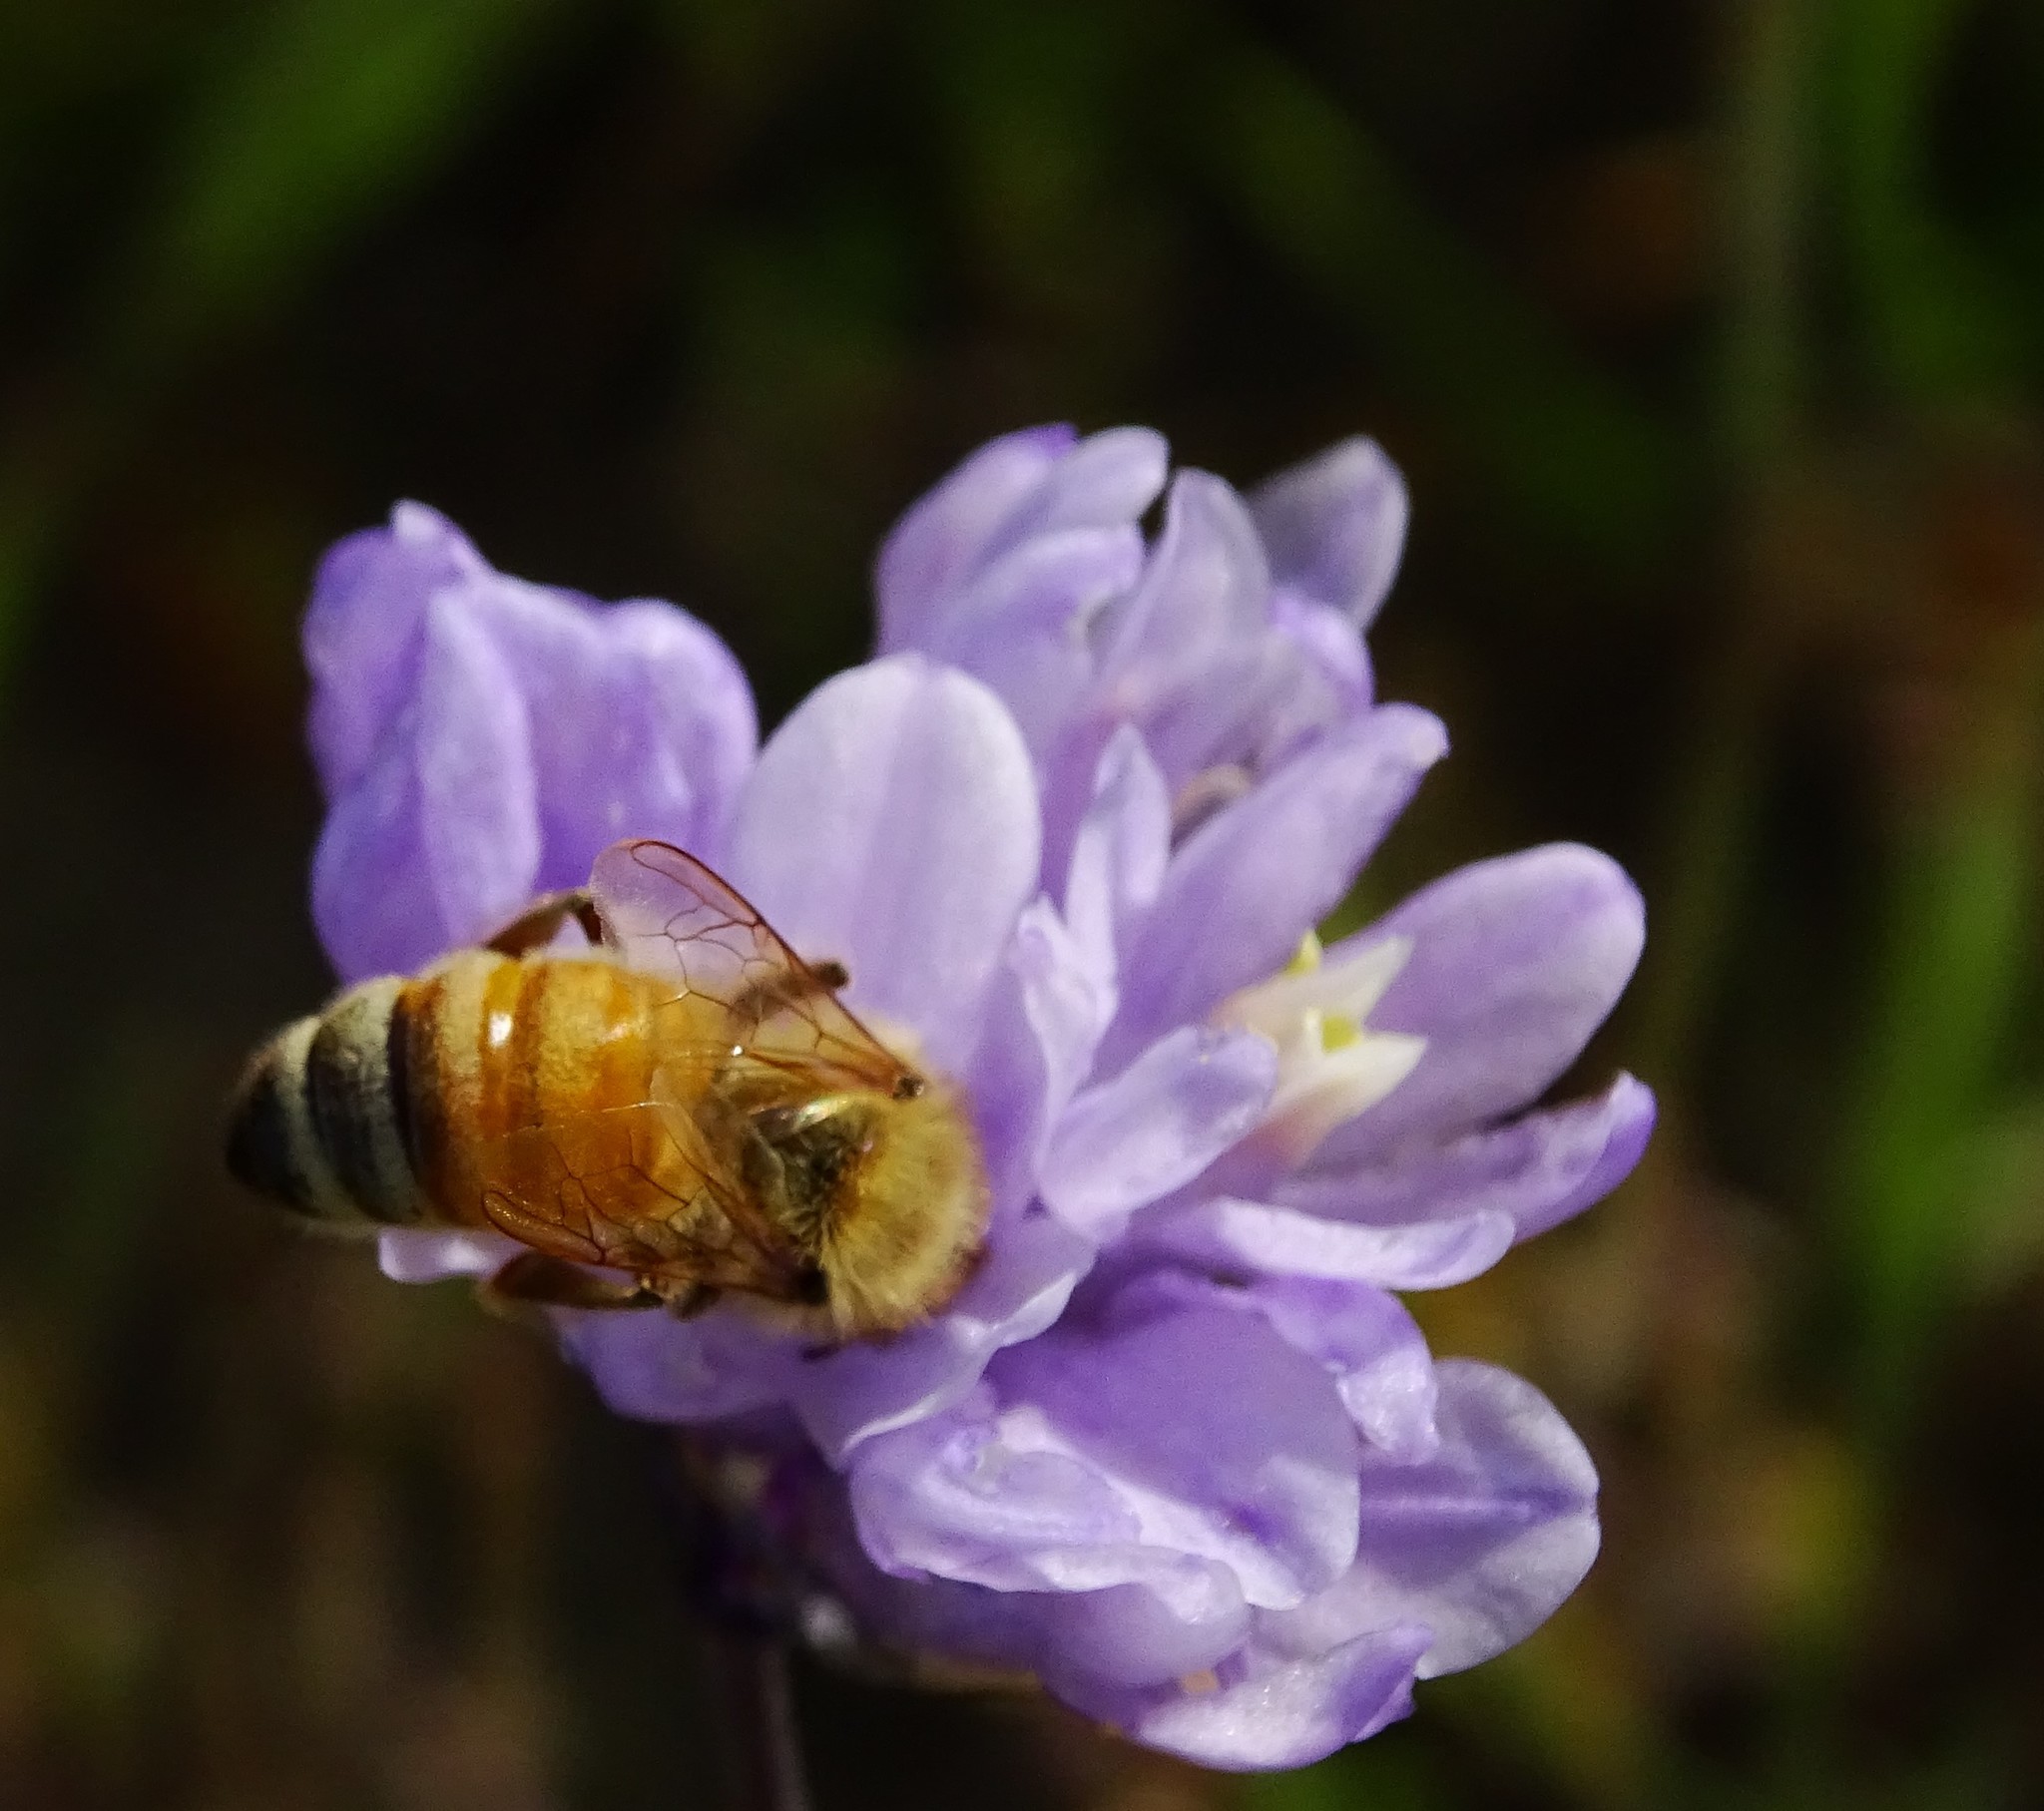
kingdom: Animalia
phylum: Arthropoda
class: Insecta
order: Hymenoptera
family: Apidae
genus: Apis
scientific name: Apis mellifera
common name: Honey bee
